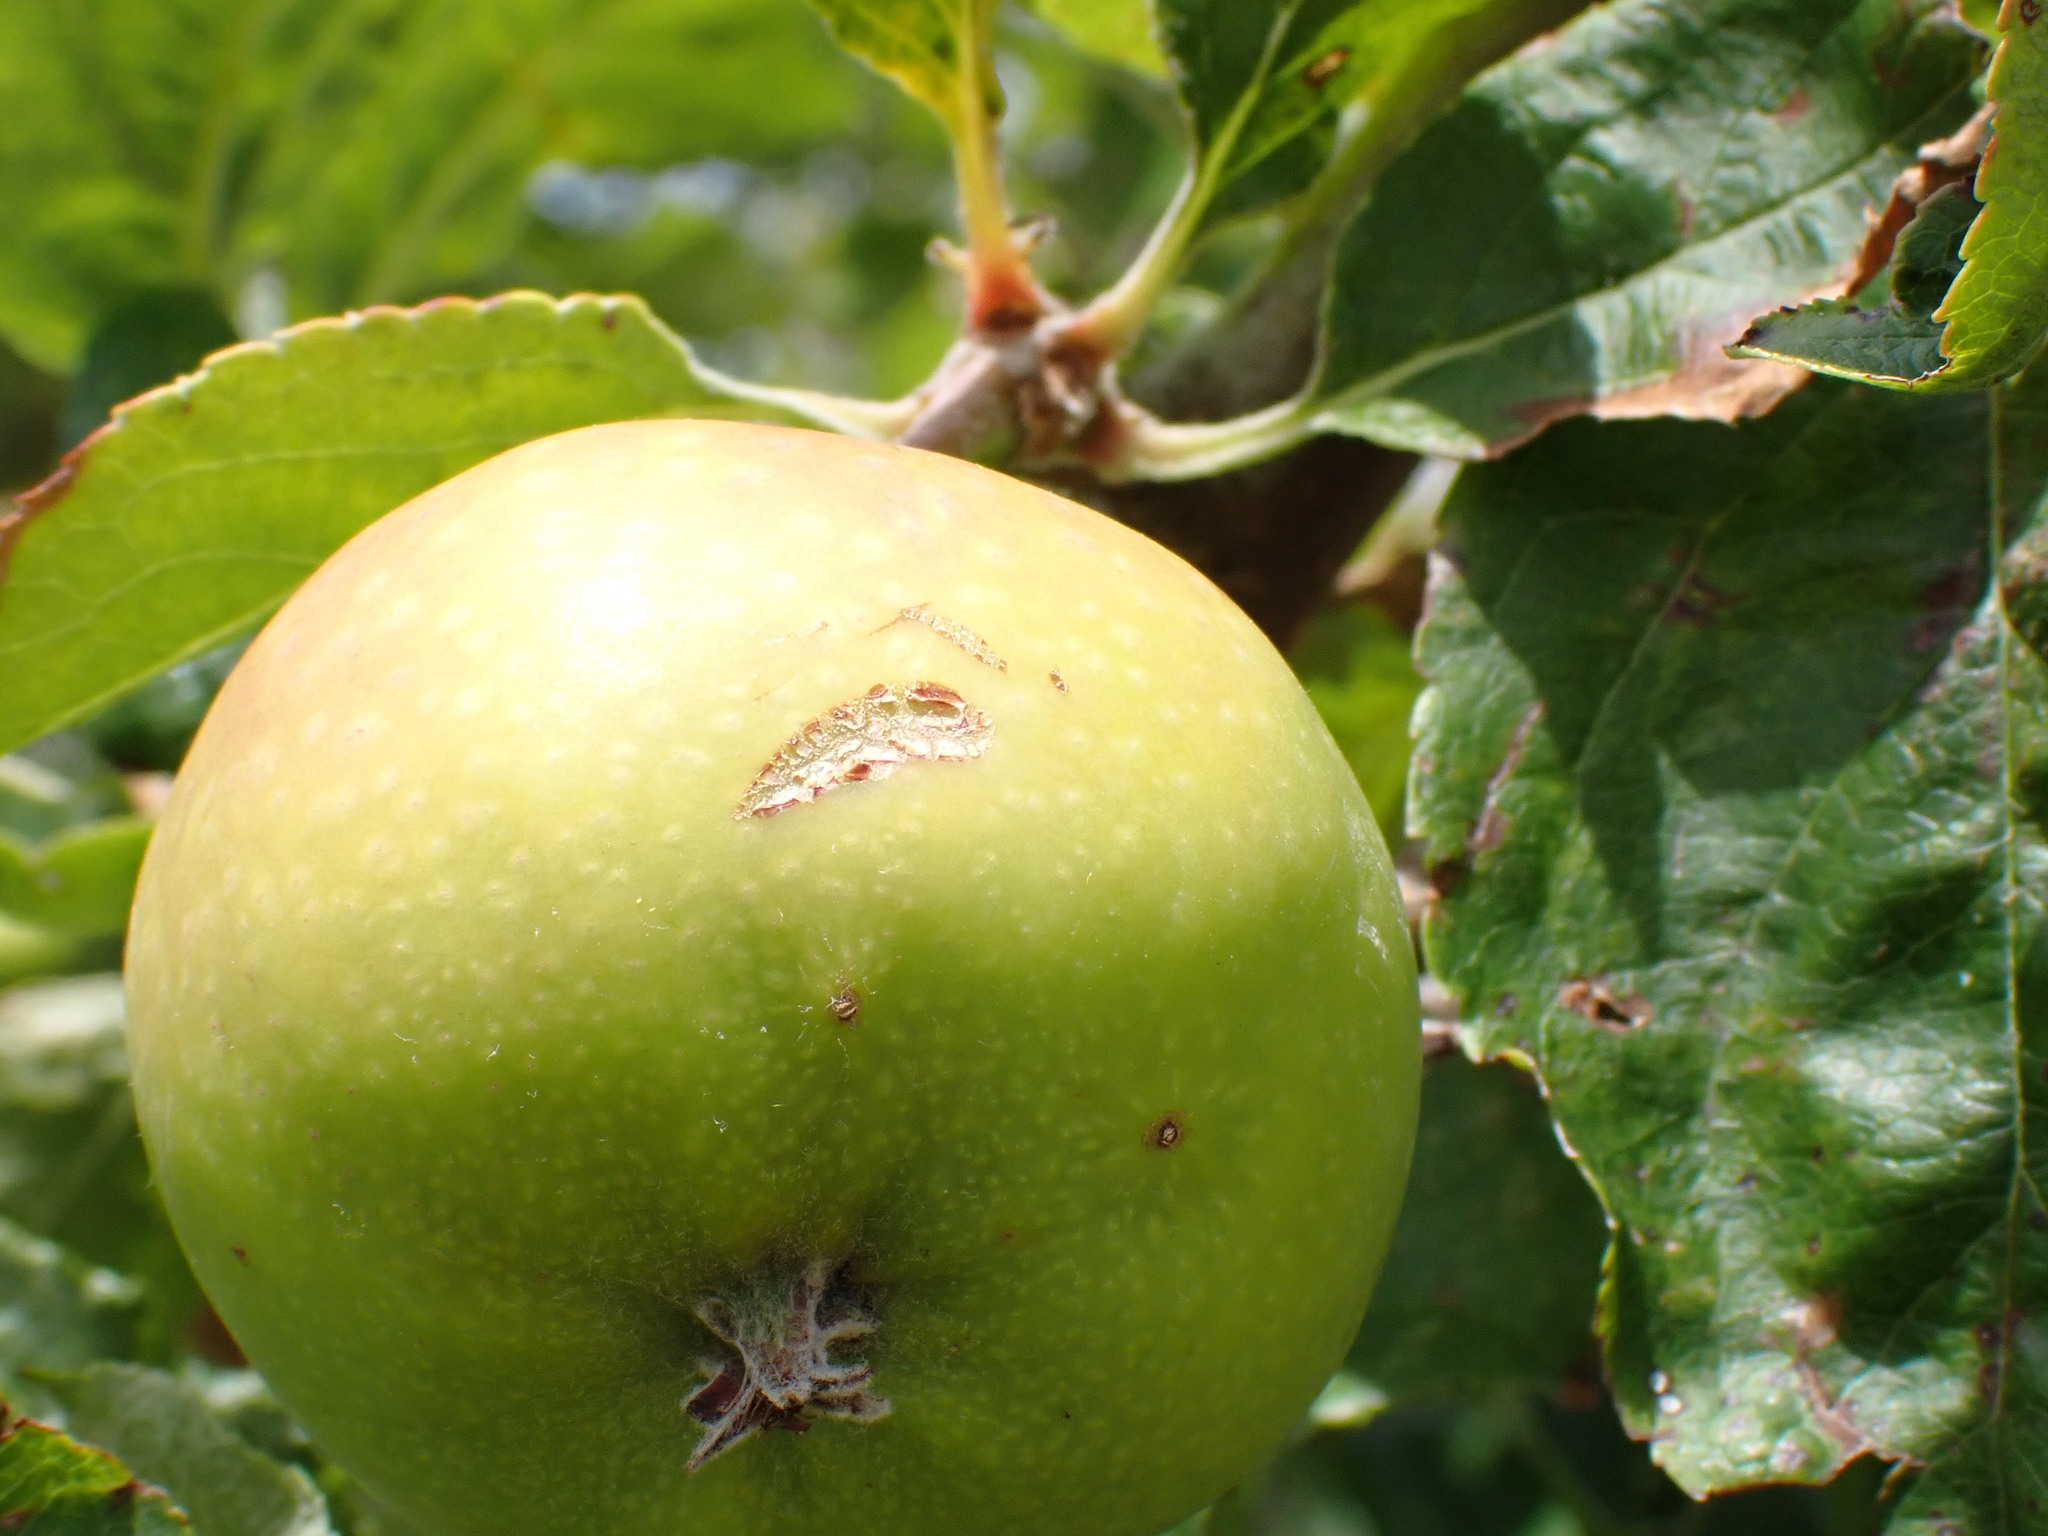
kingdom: Plantae
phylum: Tracheophyta
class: Magnoliopsida
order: Rosales
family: Rosaceae
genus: Malus
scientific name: Malus domestica
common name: Apple
